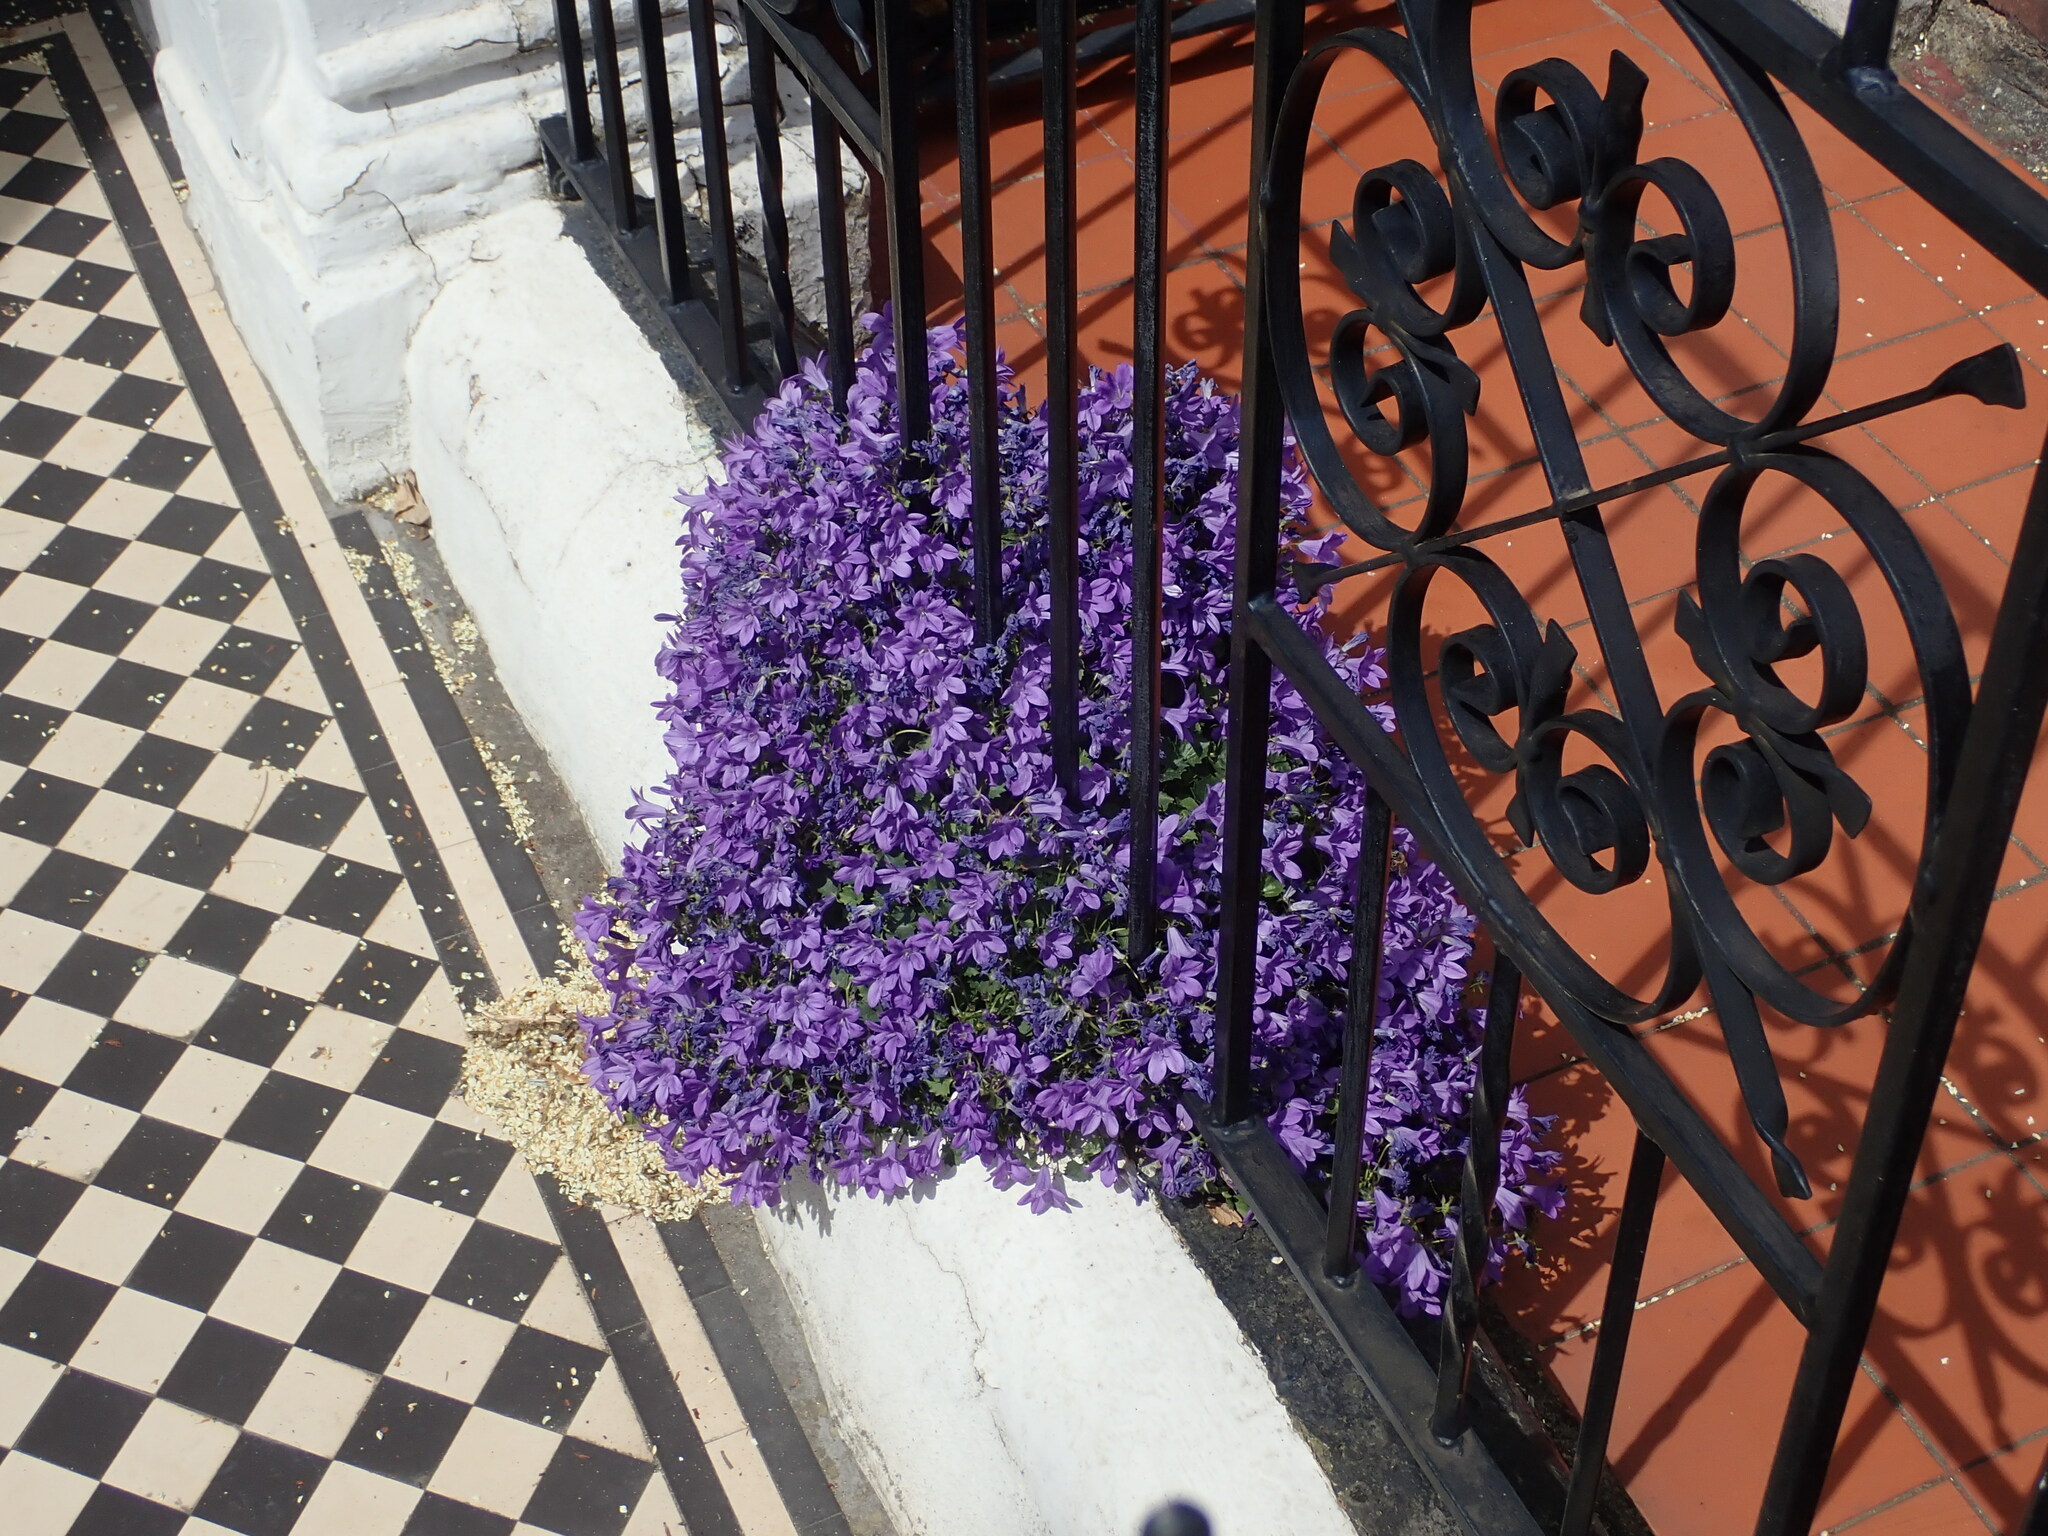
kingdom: Plantae
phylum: Tracheophyta
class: Magnoliopsida
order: Asterales
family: Campanulaceae
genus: Campanula
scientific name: Campanula portenschlagiana
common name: Adria bellflower
